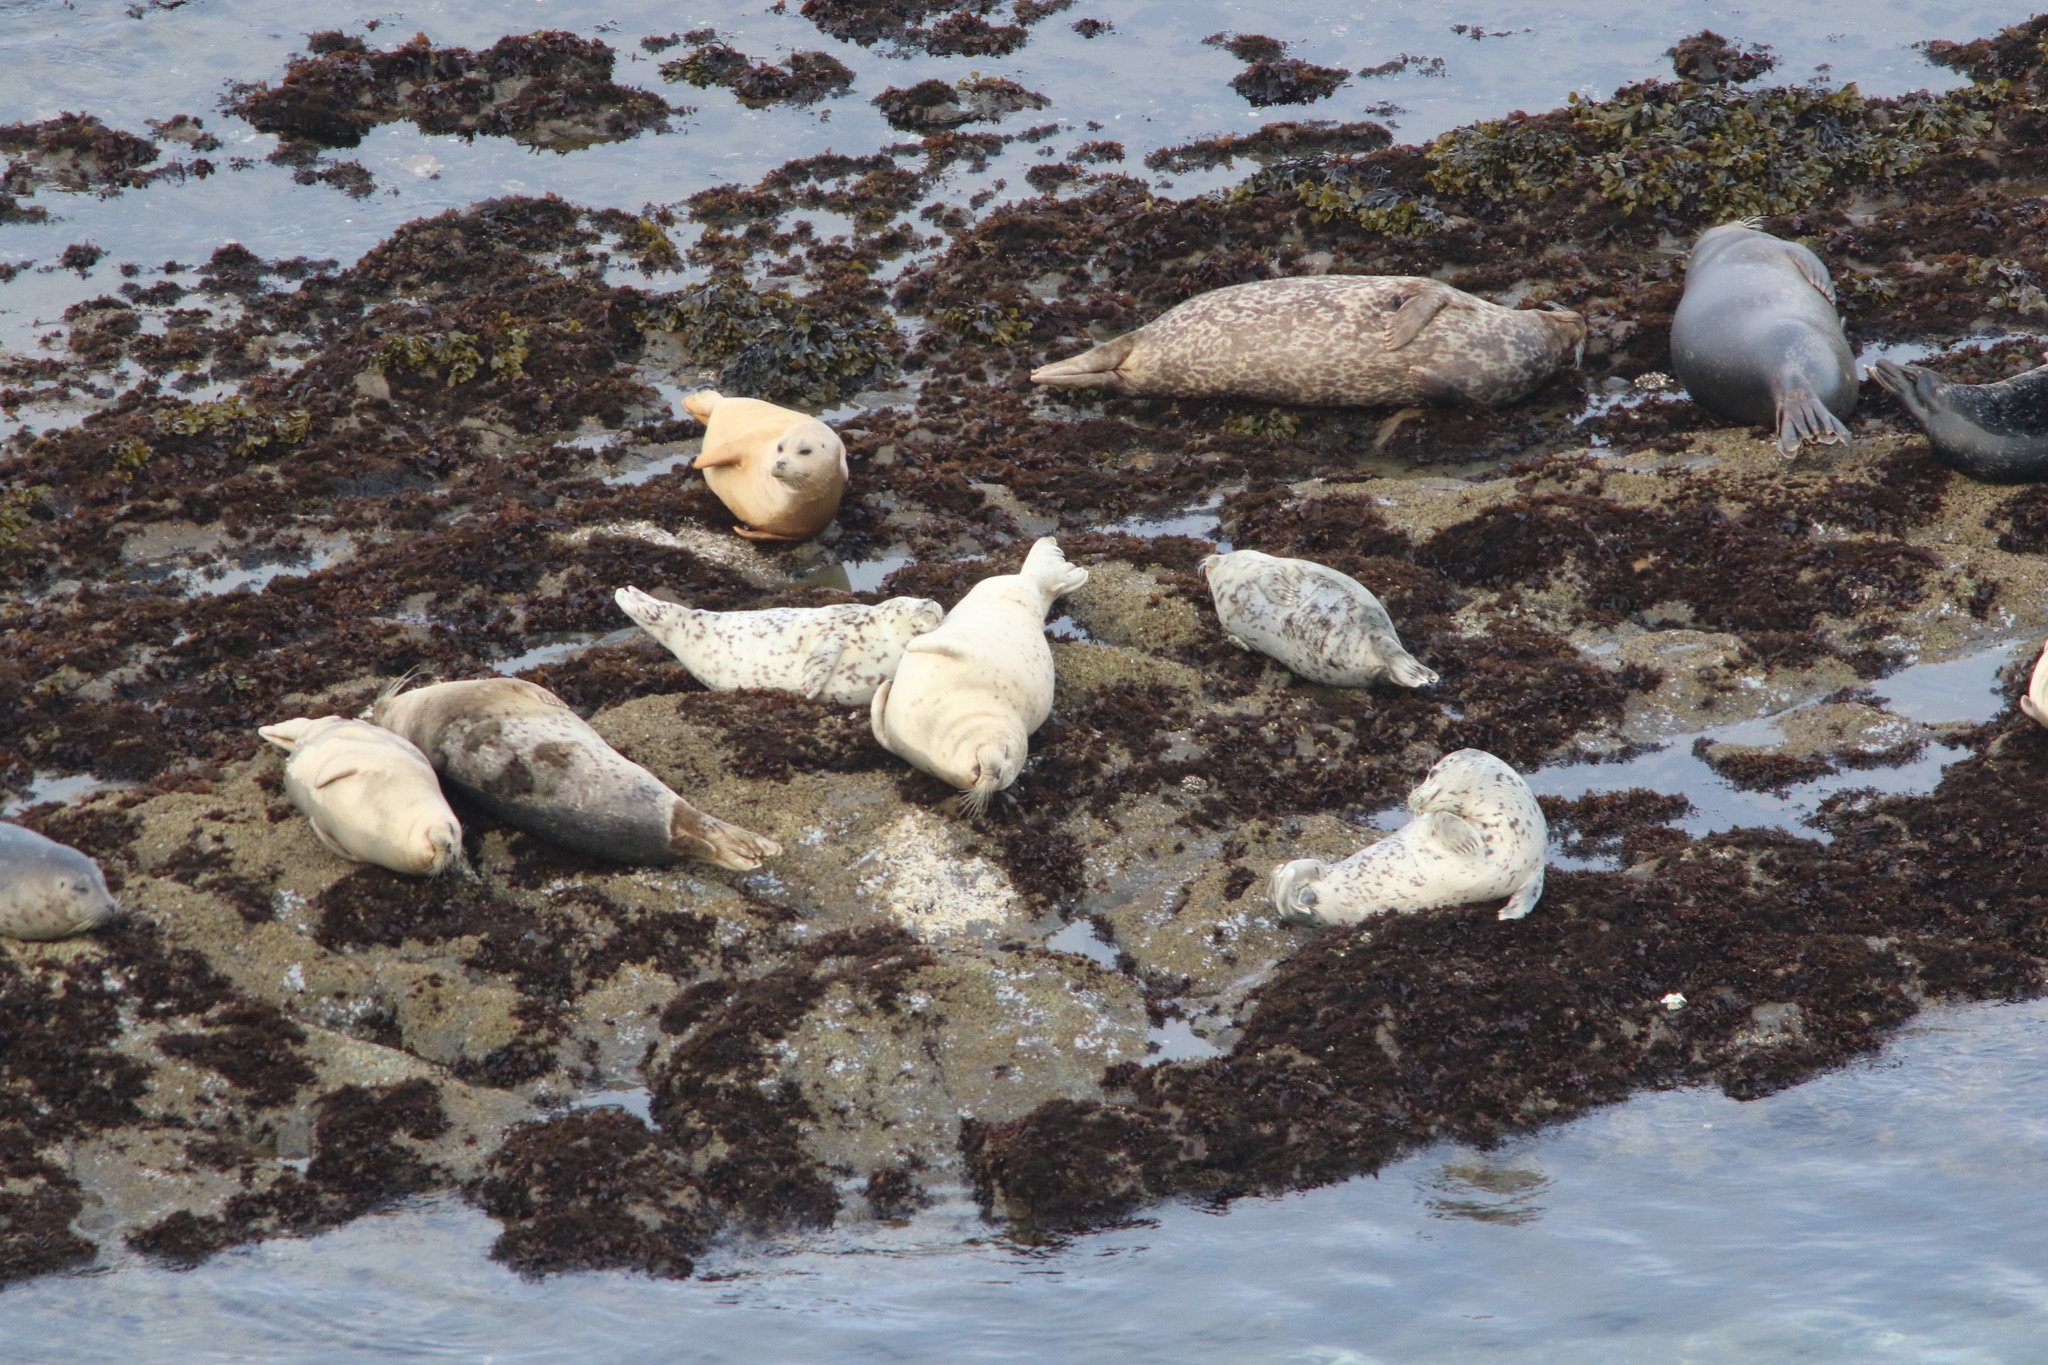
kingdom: Animalia
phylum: Chordata
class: Mammalia
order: Carnivora
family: Phocidae
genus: Phoca
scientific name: Phoca vitulina
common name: Harbor seal
